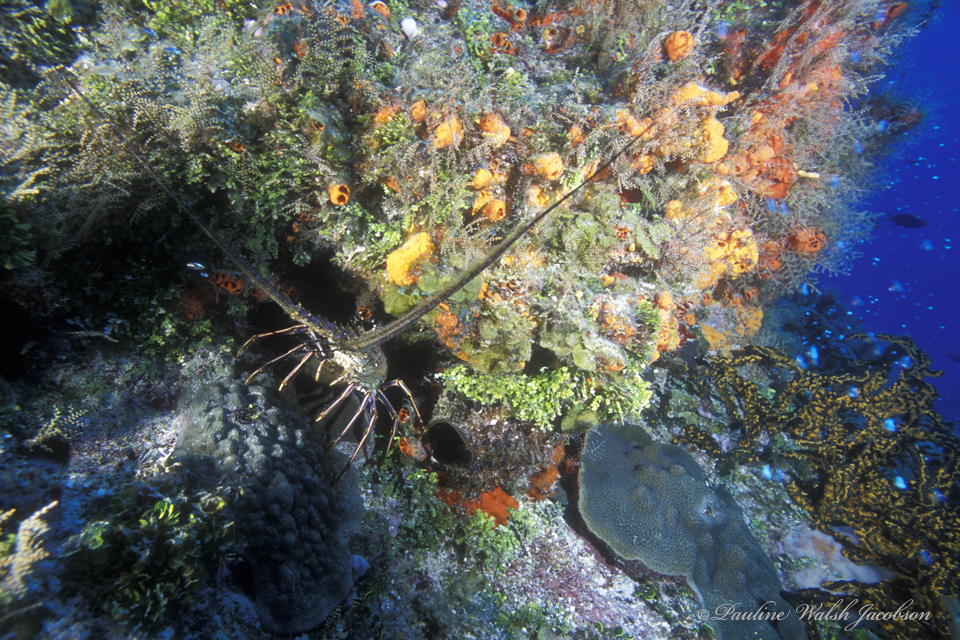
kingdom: Animalia
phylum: Arthropoda
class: Malacostraca
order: Decapoda
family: Palinuridae
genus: Panulirus
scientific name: Panulirus argus
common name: Caribbean spiny lobster
